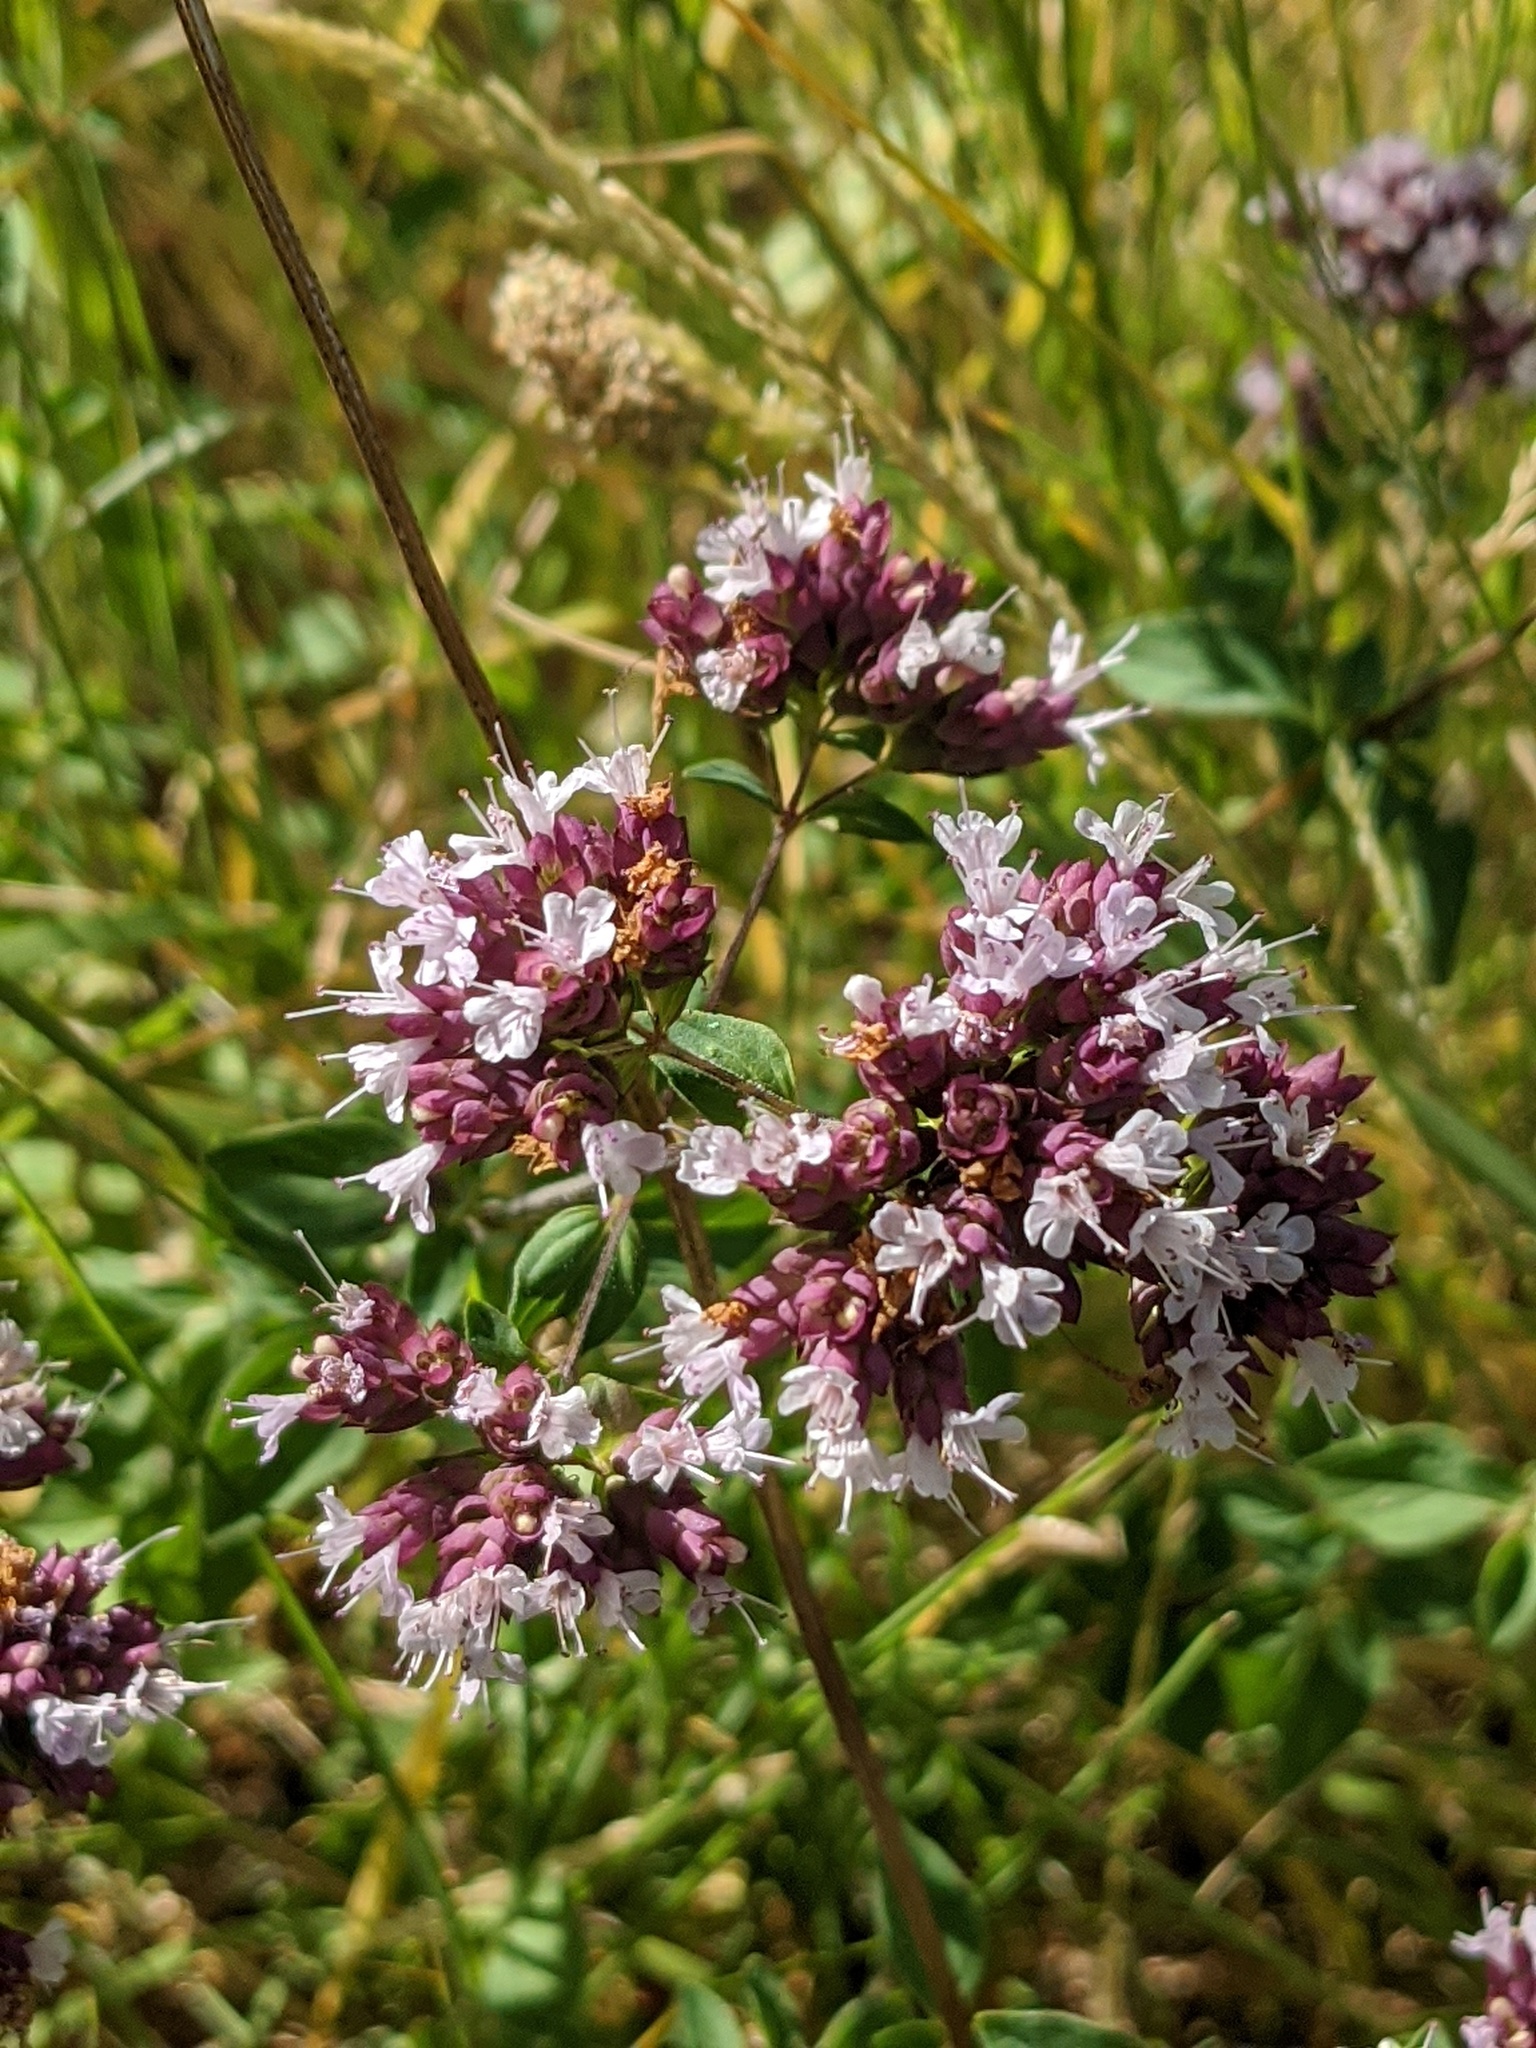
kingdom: Plantae
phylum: Tracheophyta
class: Magnoliopsida
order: Lamiales
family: Lamiaceae
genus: Origanum
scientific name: Origanum vulgare
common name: Wild marjoram
